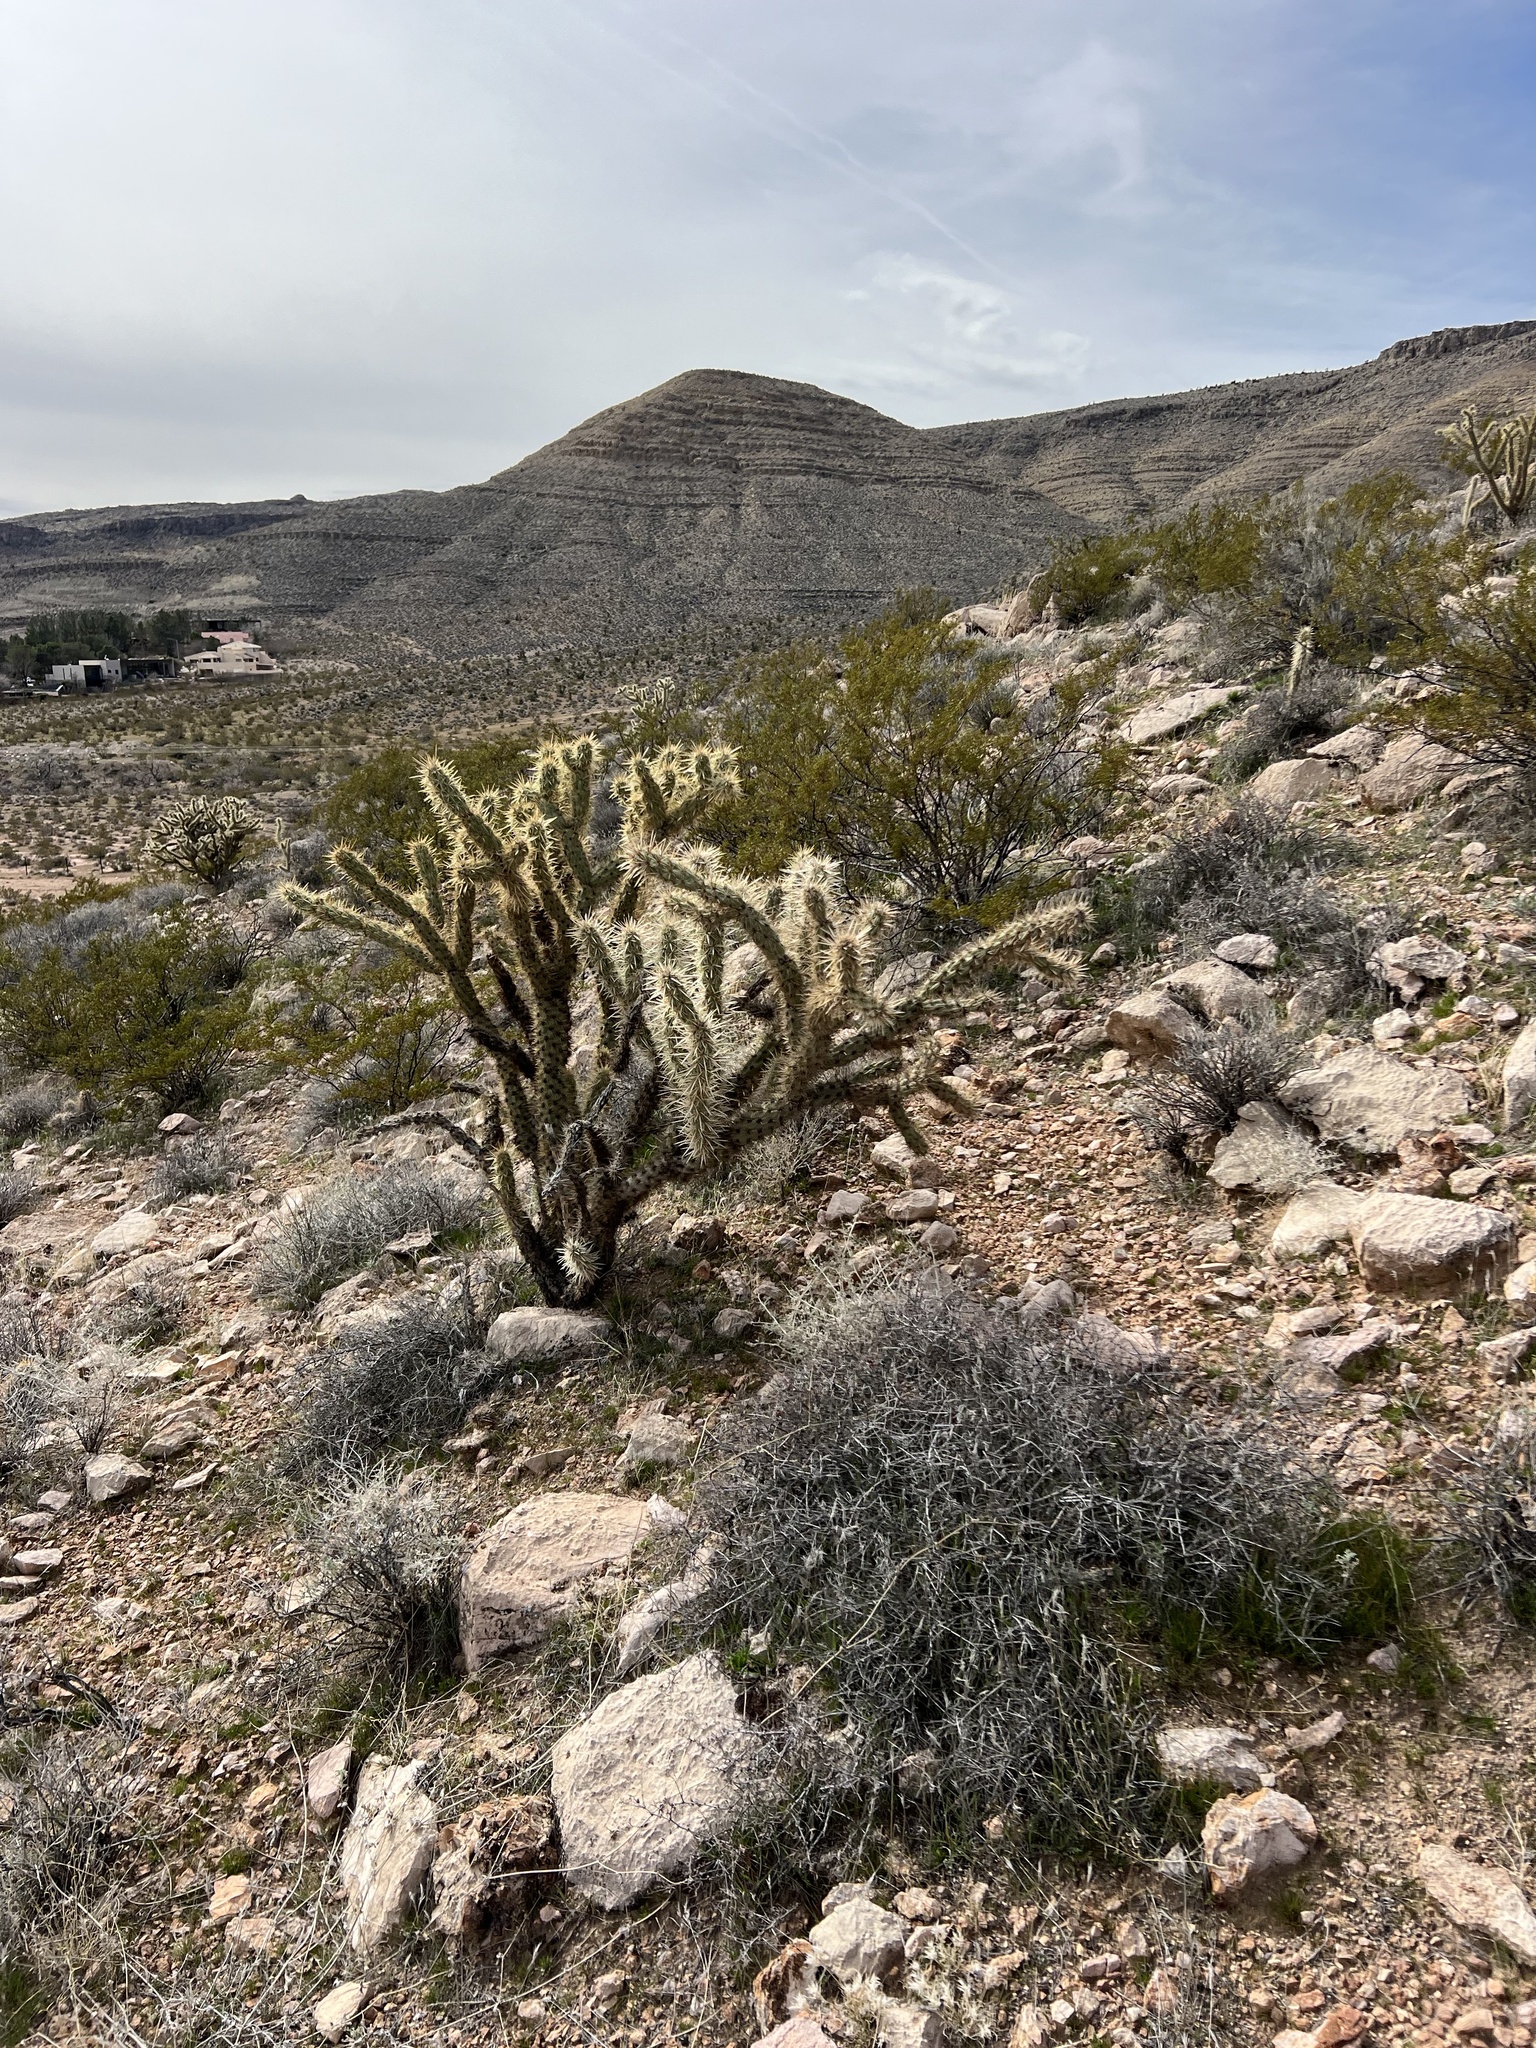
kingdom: Plantae
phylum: Tracheophyta
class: Magnoliopsida
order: Caryophyllales
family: Cactaceae
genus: Cylindropuntia
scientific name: Cylindropuntia acanthocarpa
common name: Buckhorn cholla
